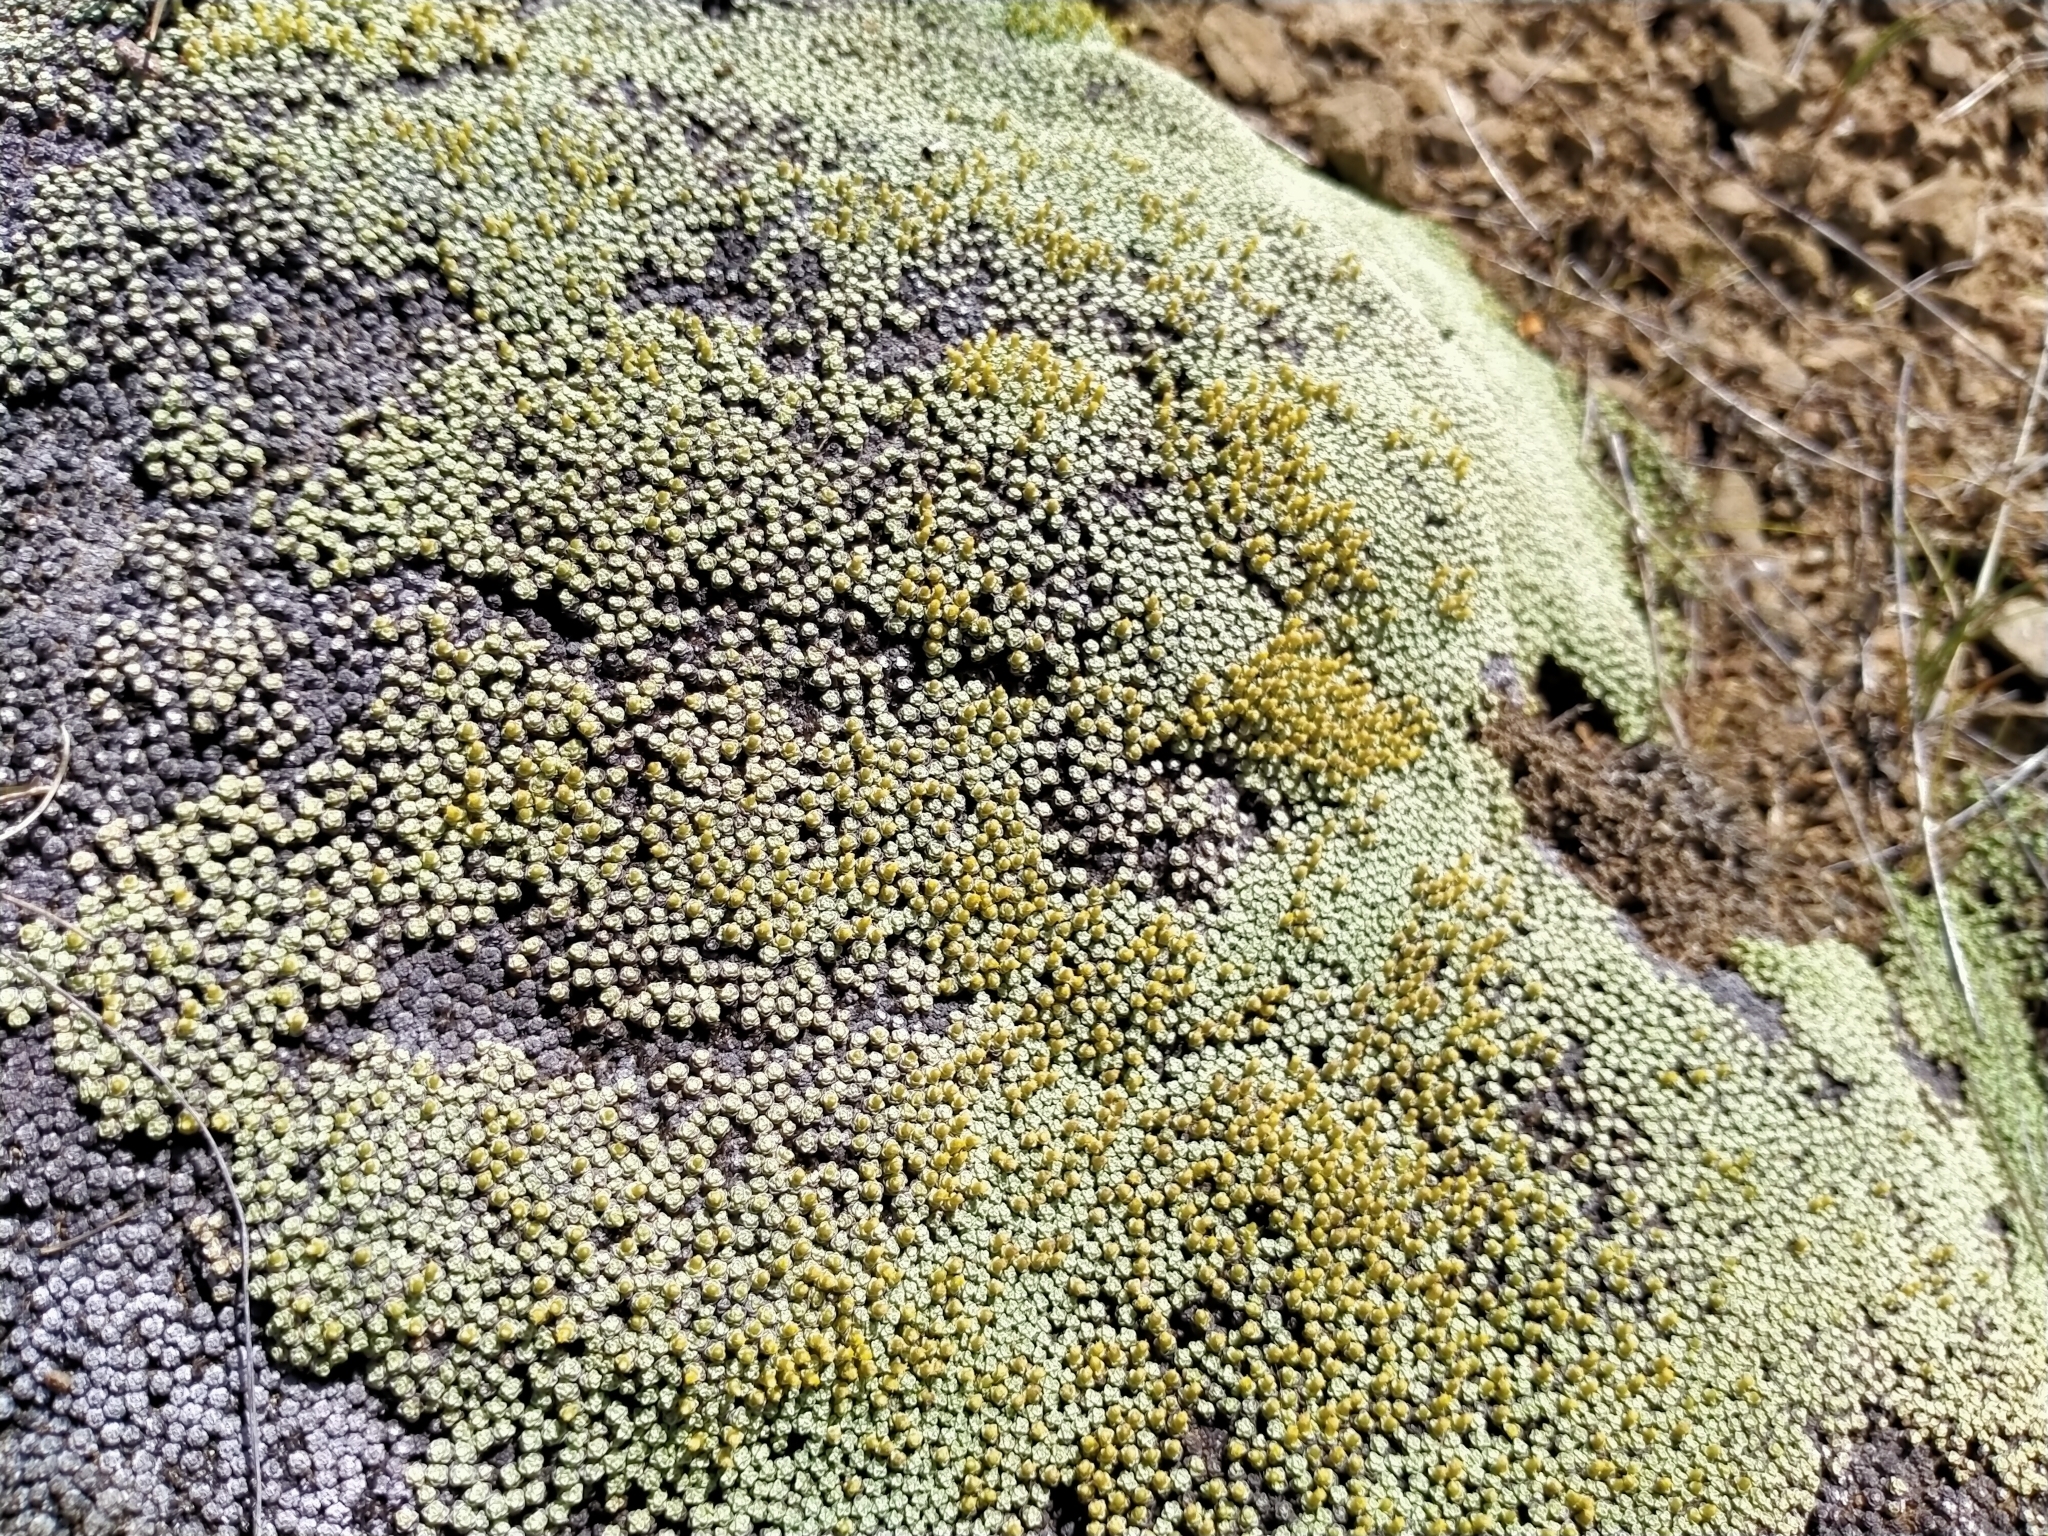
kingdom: Plantae
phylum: Tracheophyta
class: Magnoliopsida
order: Asterales
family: Asteraceae
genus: Raoulia
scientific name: Raoulia australis
